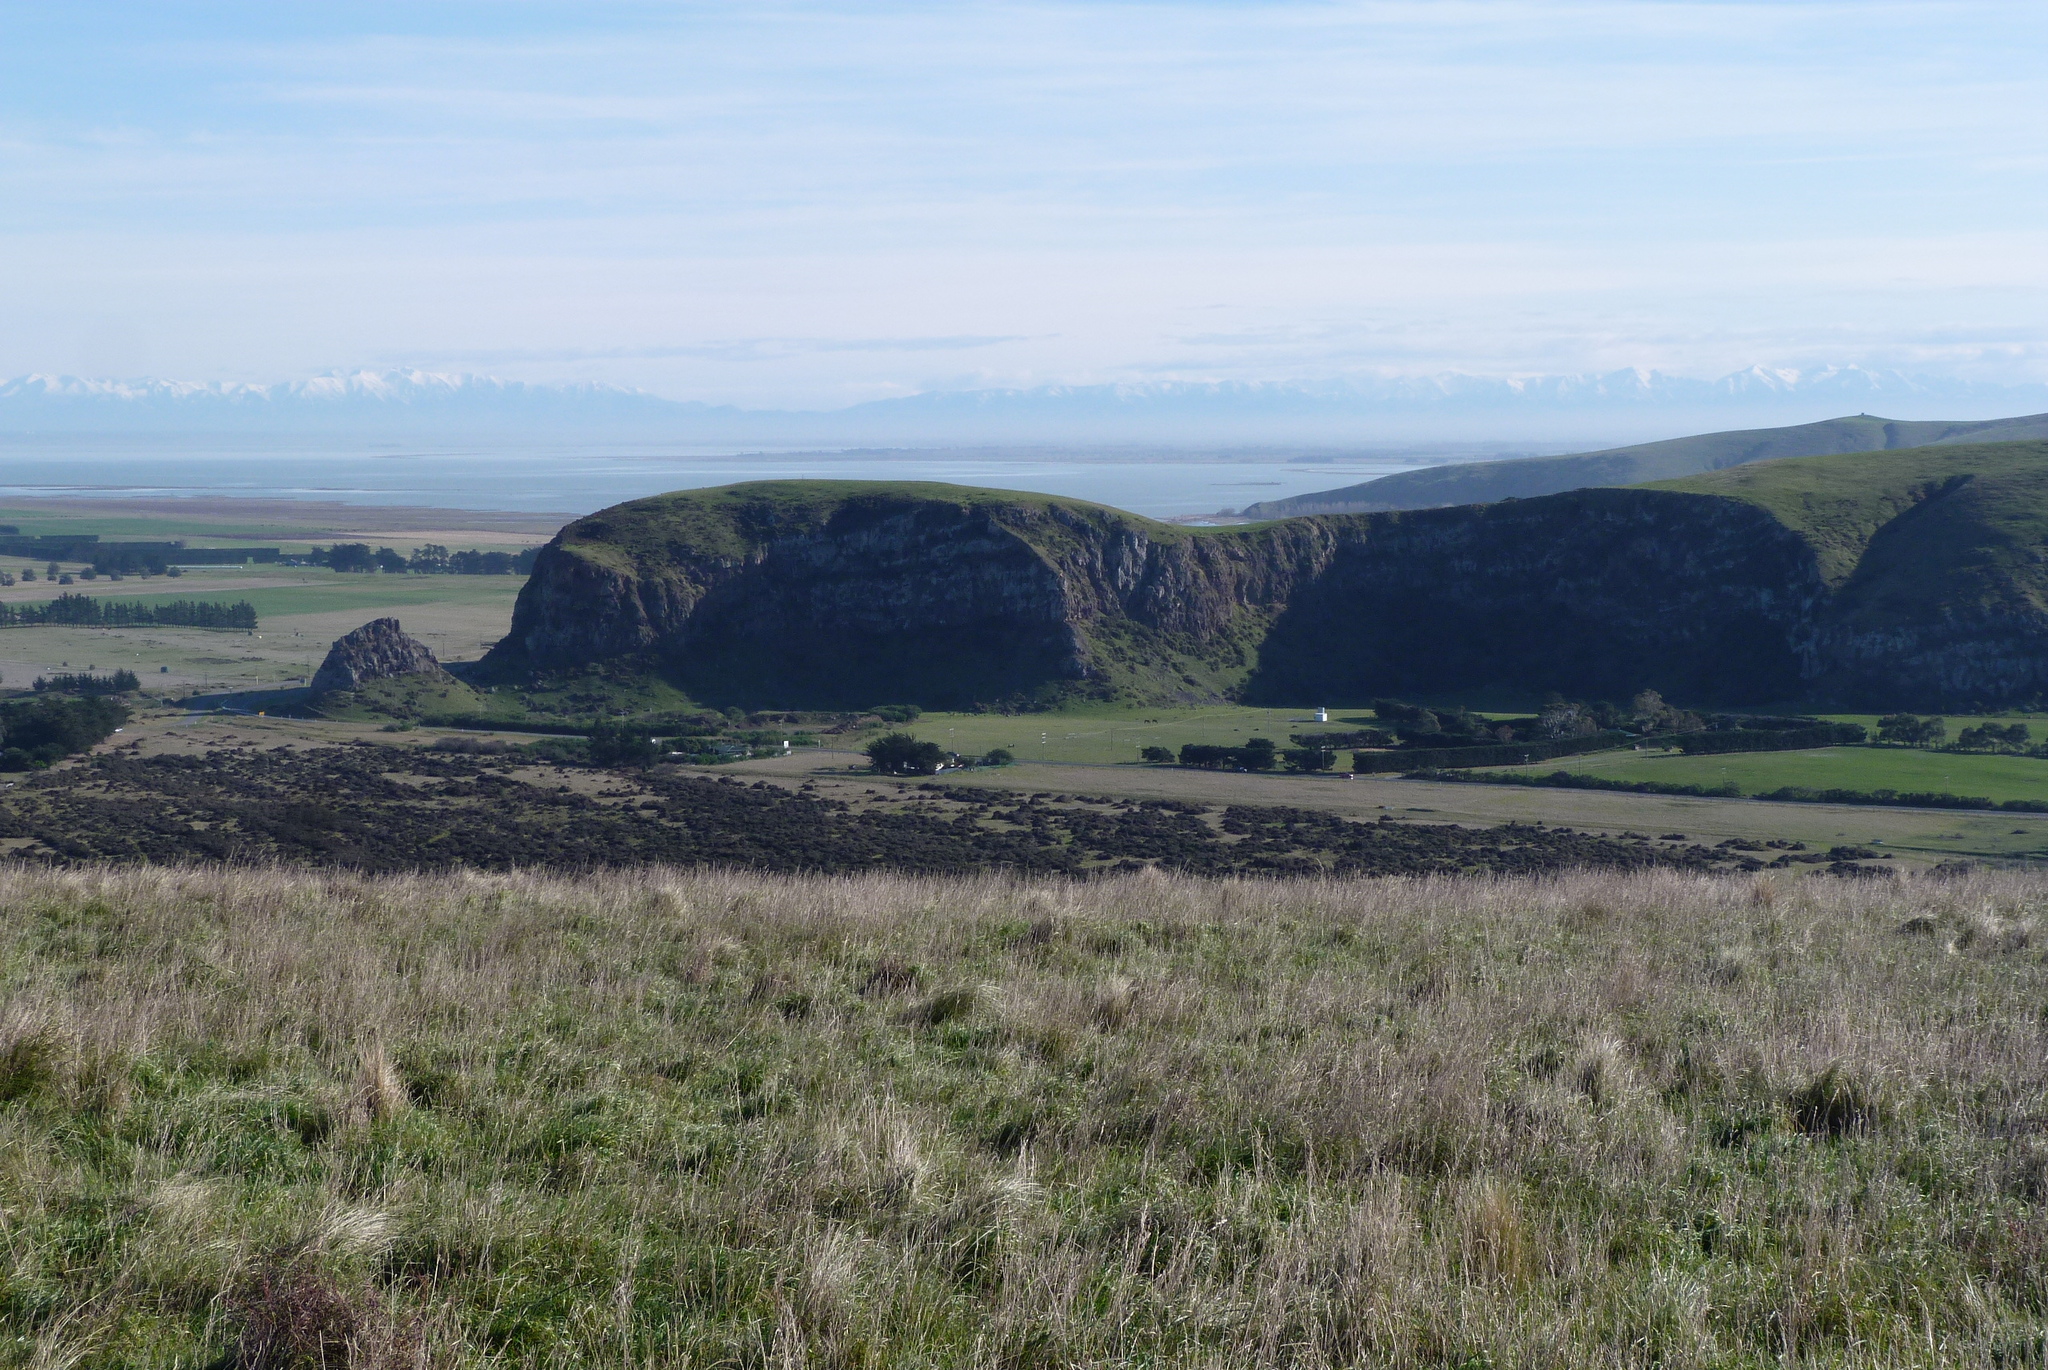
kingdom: Plantae
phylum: Tracheophyta
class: Liliopsida
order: Poales
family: Poaceae
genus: Dactylis
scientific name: Dactylis glomerata
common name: Orchardgrass
